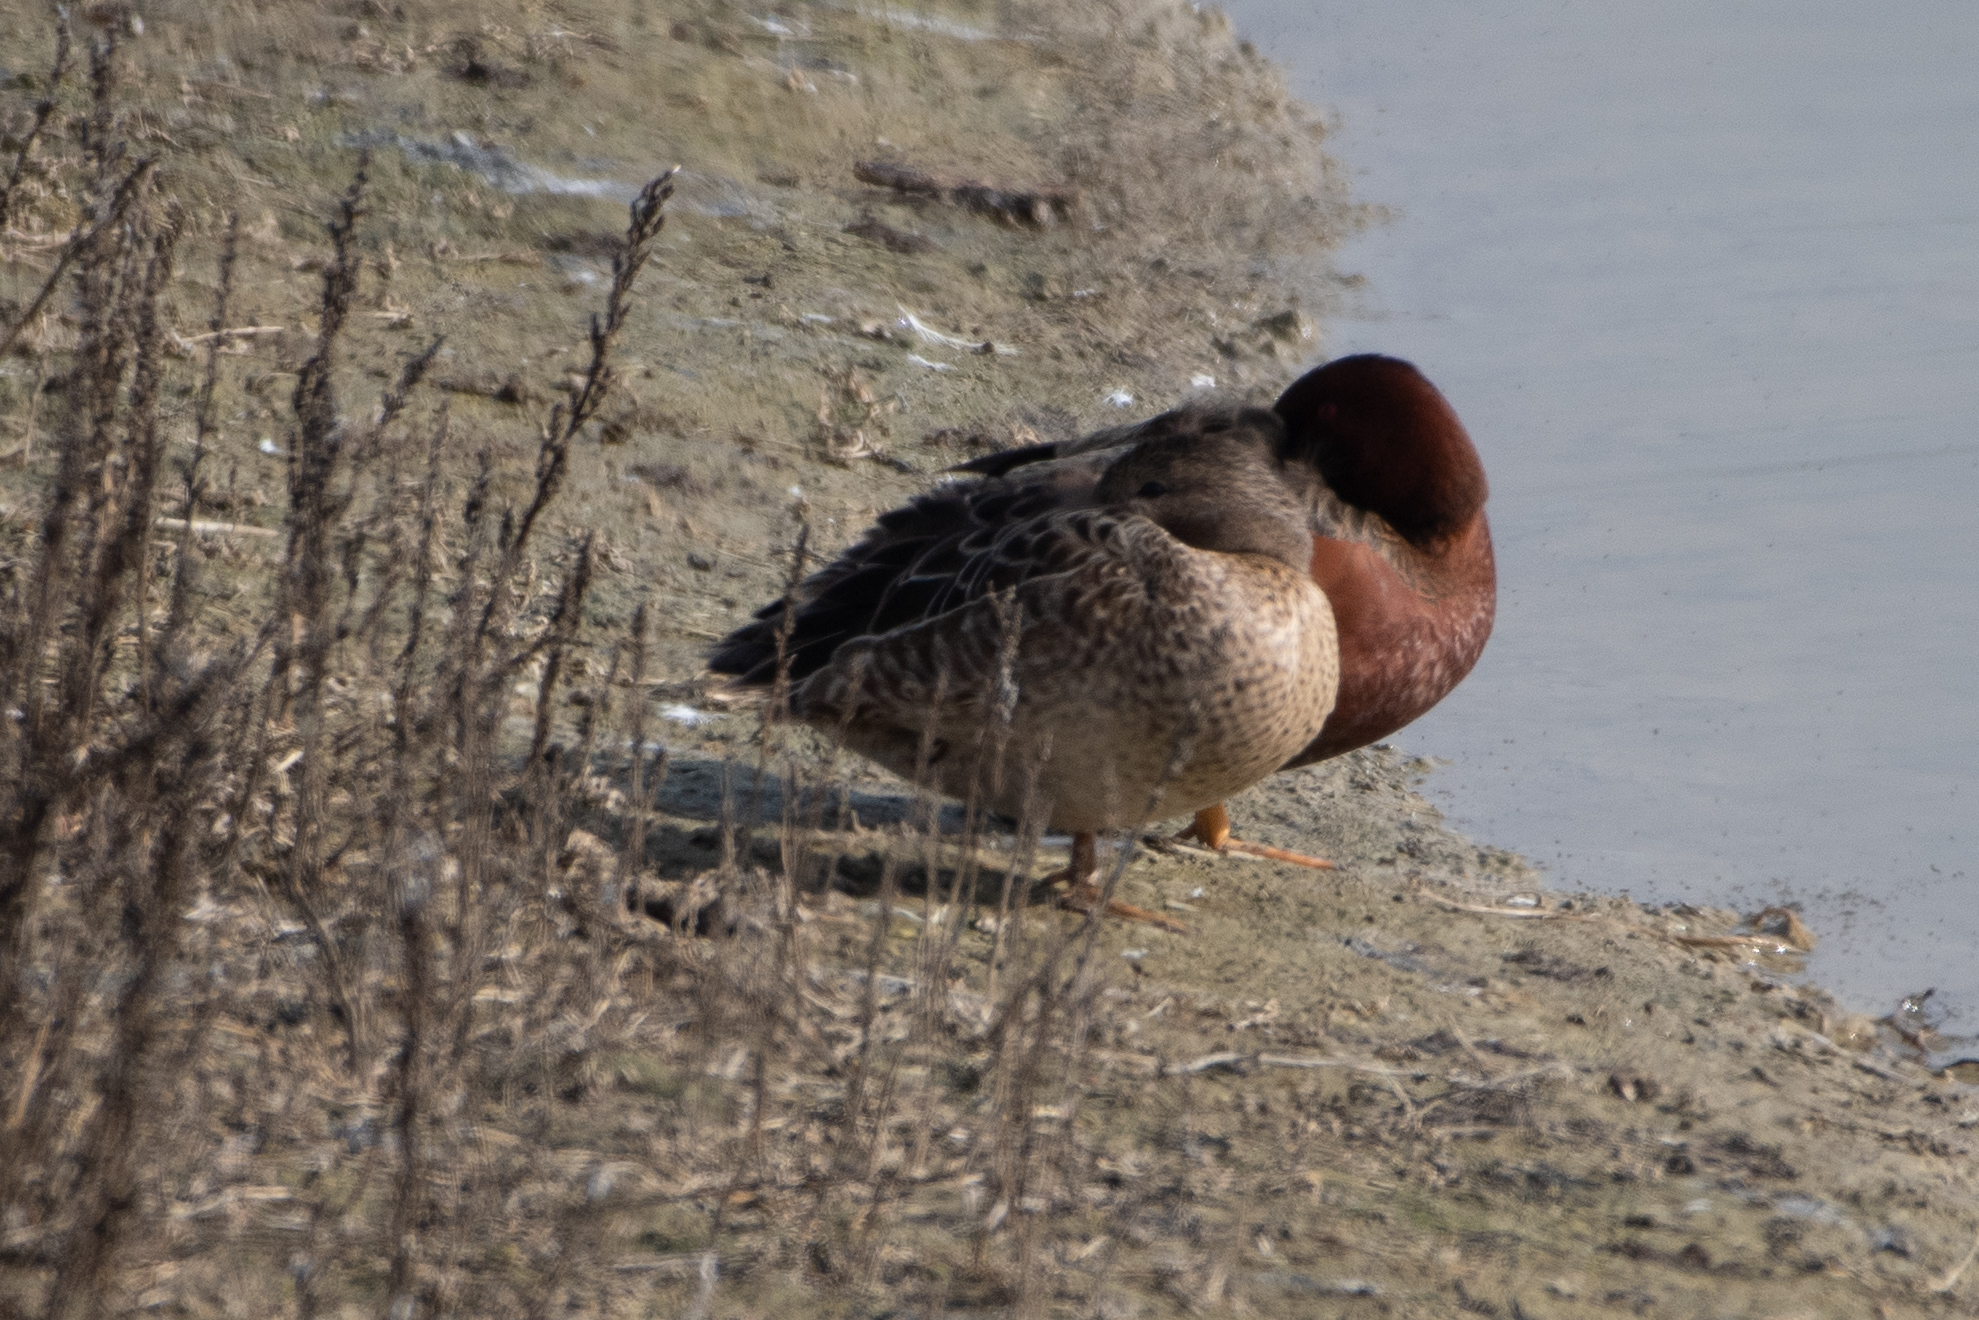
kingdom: Animalia
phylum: Chordata
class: Aves
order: Anseriformes
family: Anatidae
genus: Spatula
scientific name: Spatula cyanoptera
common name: Cinnamon teal
